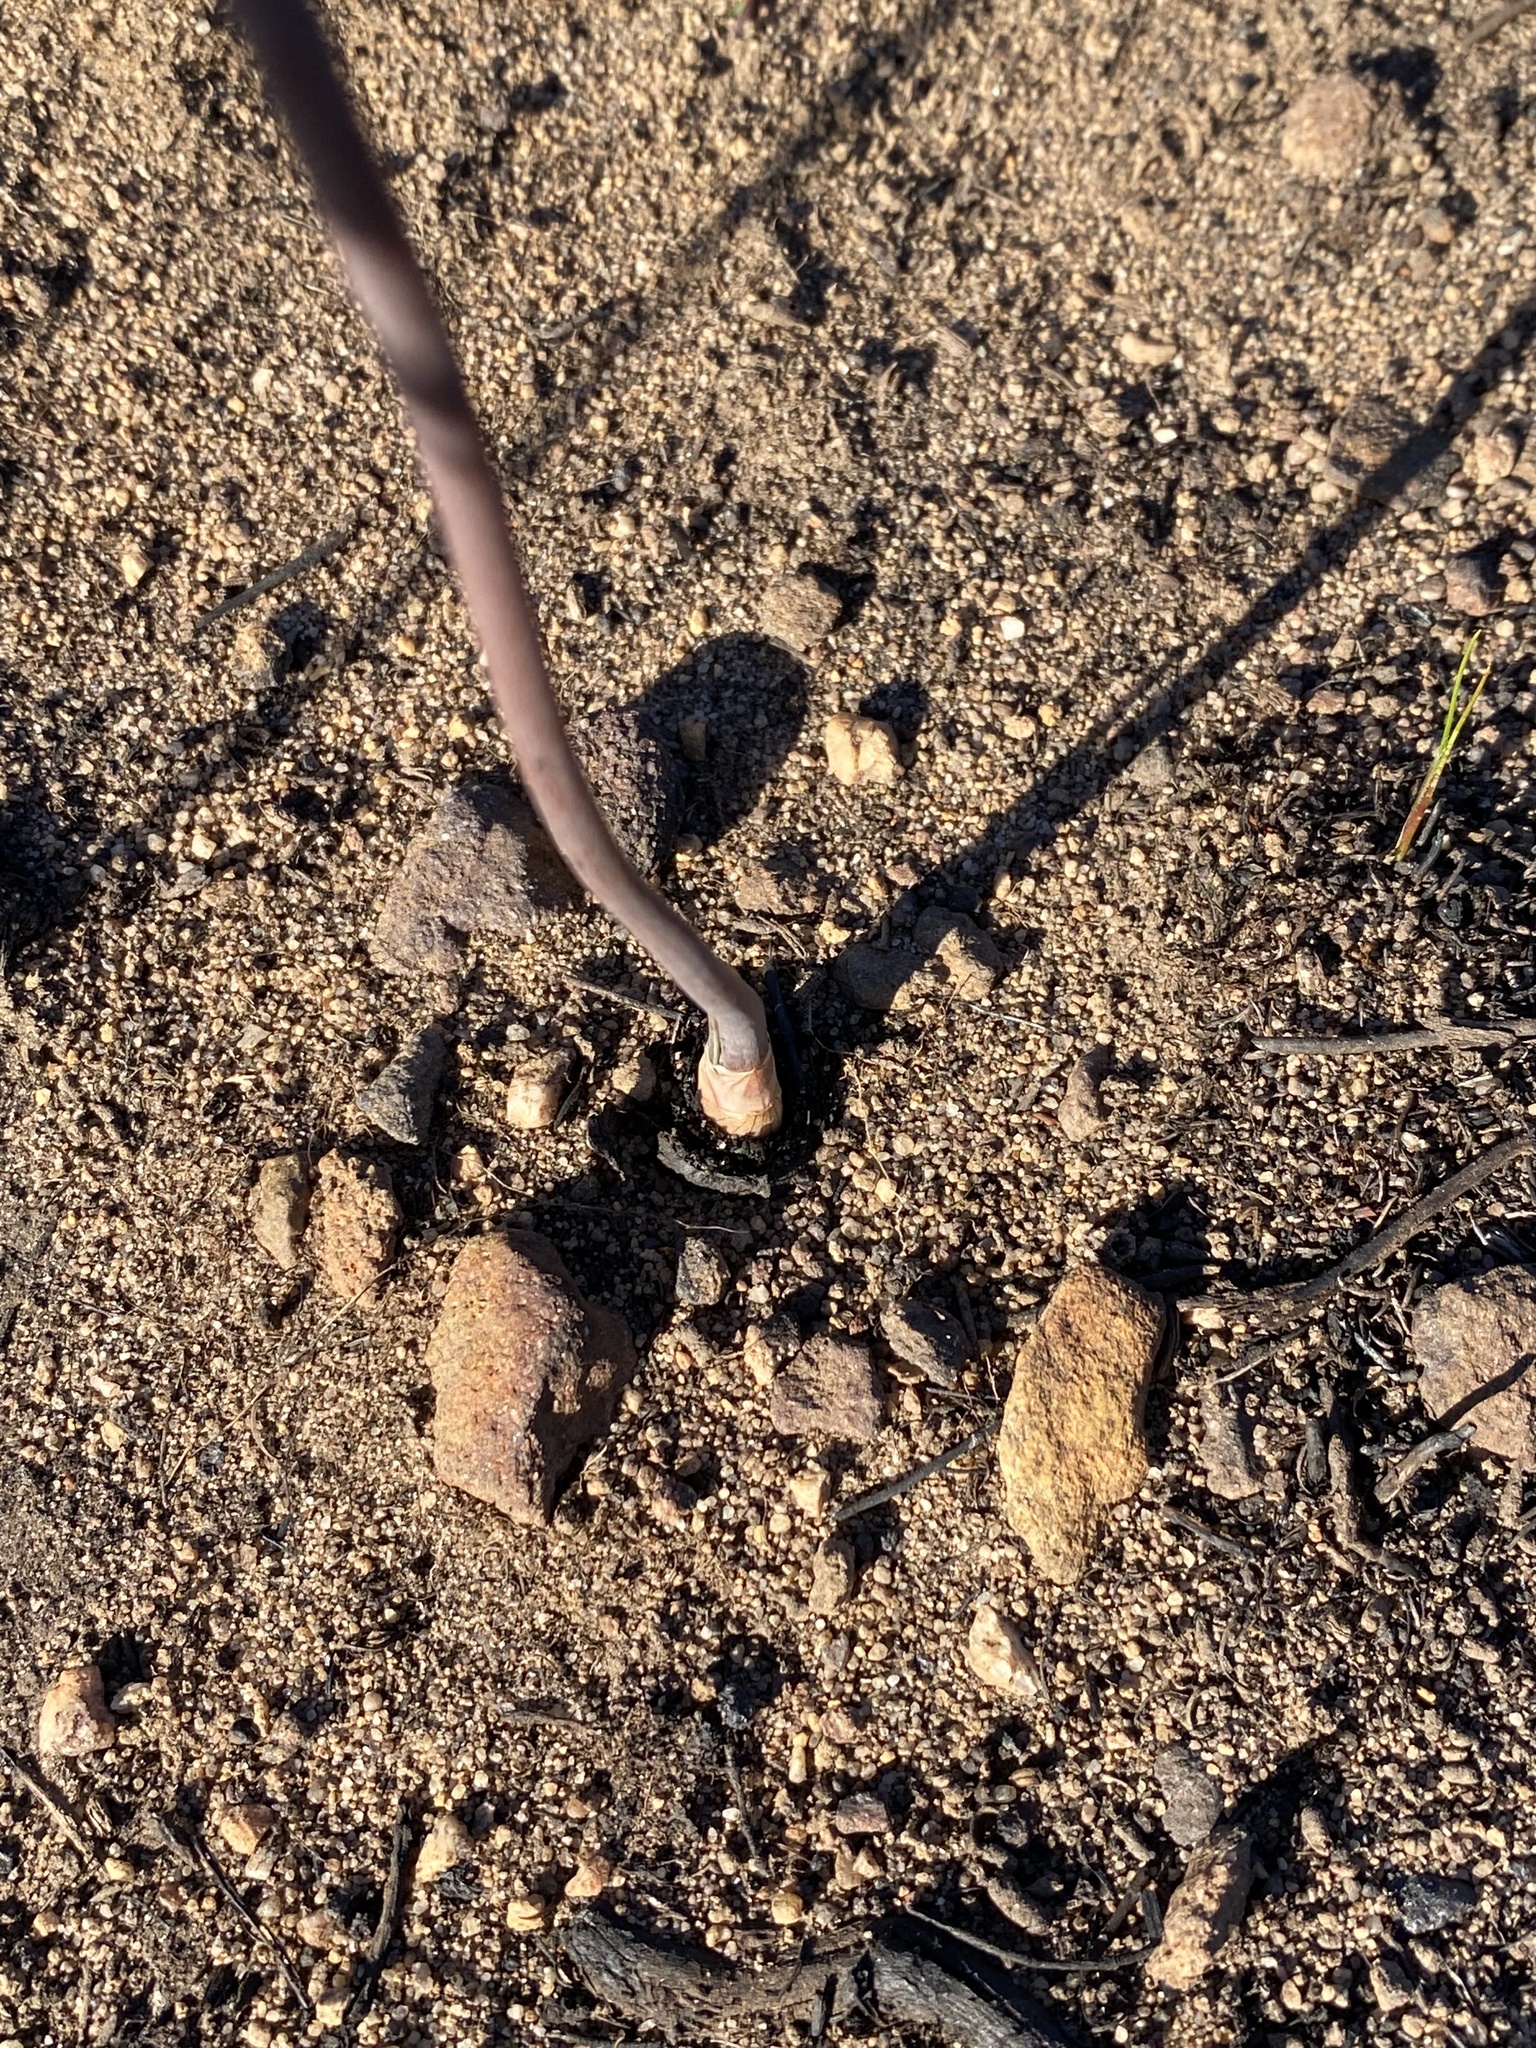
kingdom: Plantae
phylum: Tracheophyta
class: Liliopsida
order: Asparagales
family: Asphodelaceae
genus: Bulbine
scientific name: Bulbine cepacea
